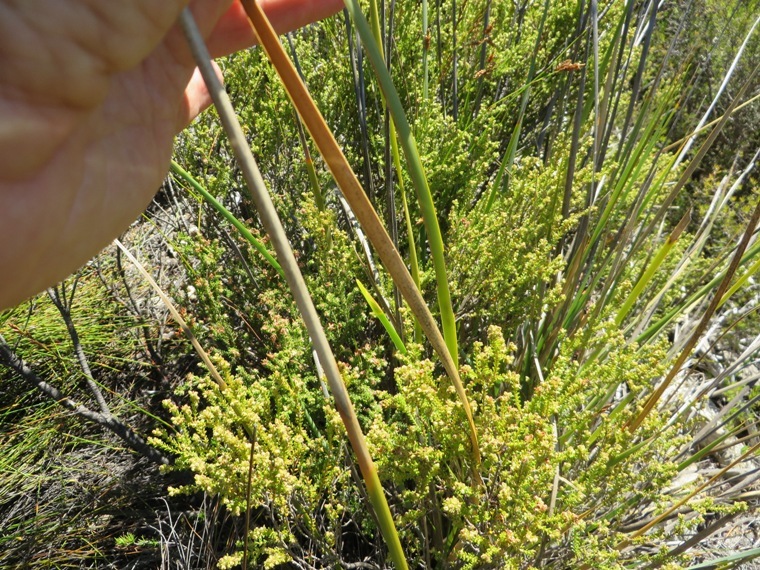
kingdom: Plantae
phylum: Tracheophyta
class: Liliopsida
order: Asparagales
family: Iridaceae
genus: Bobartia
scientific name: Bobartia filiformis
